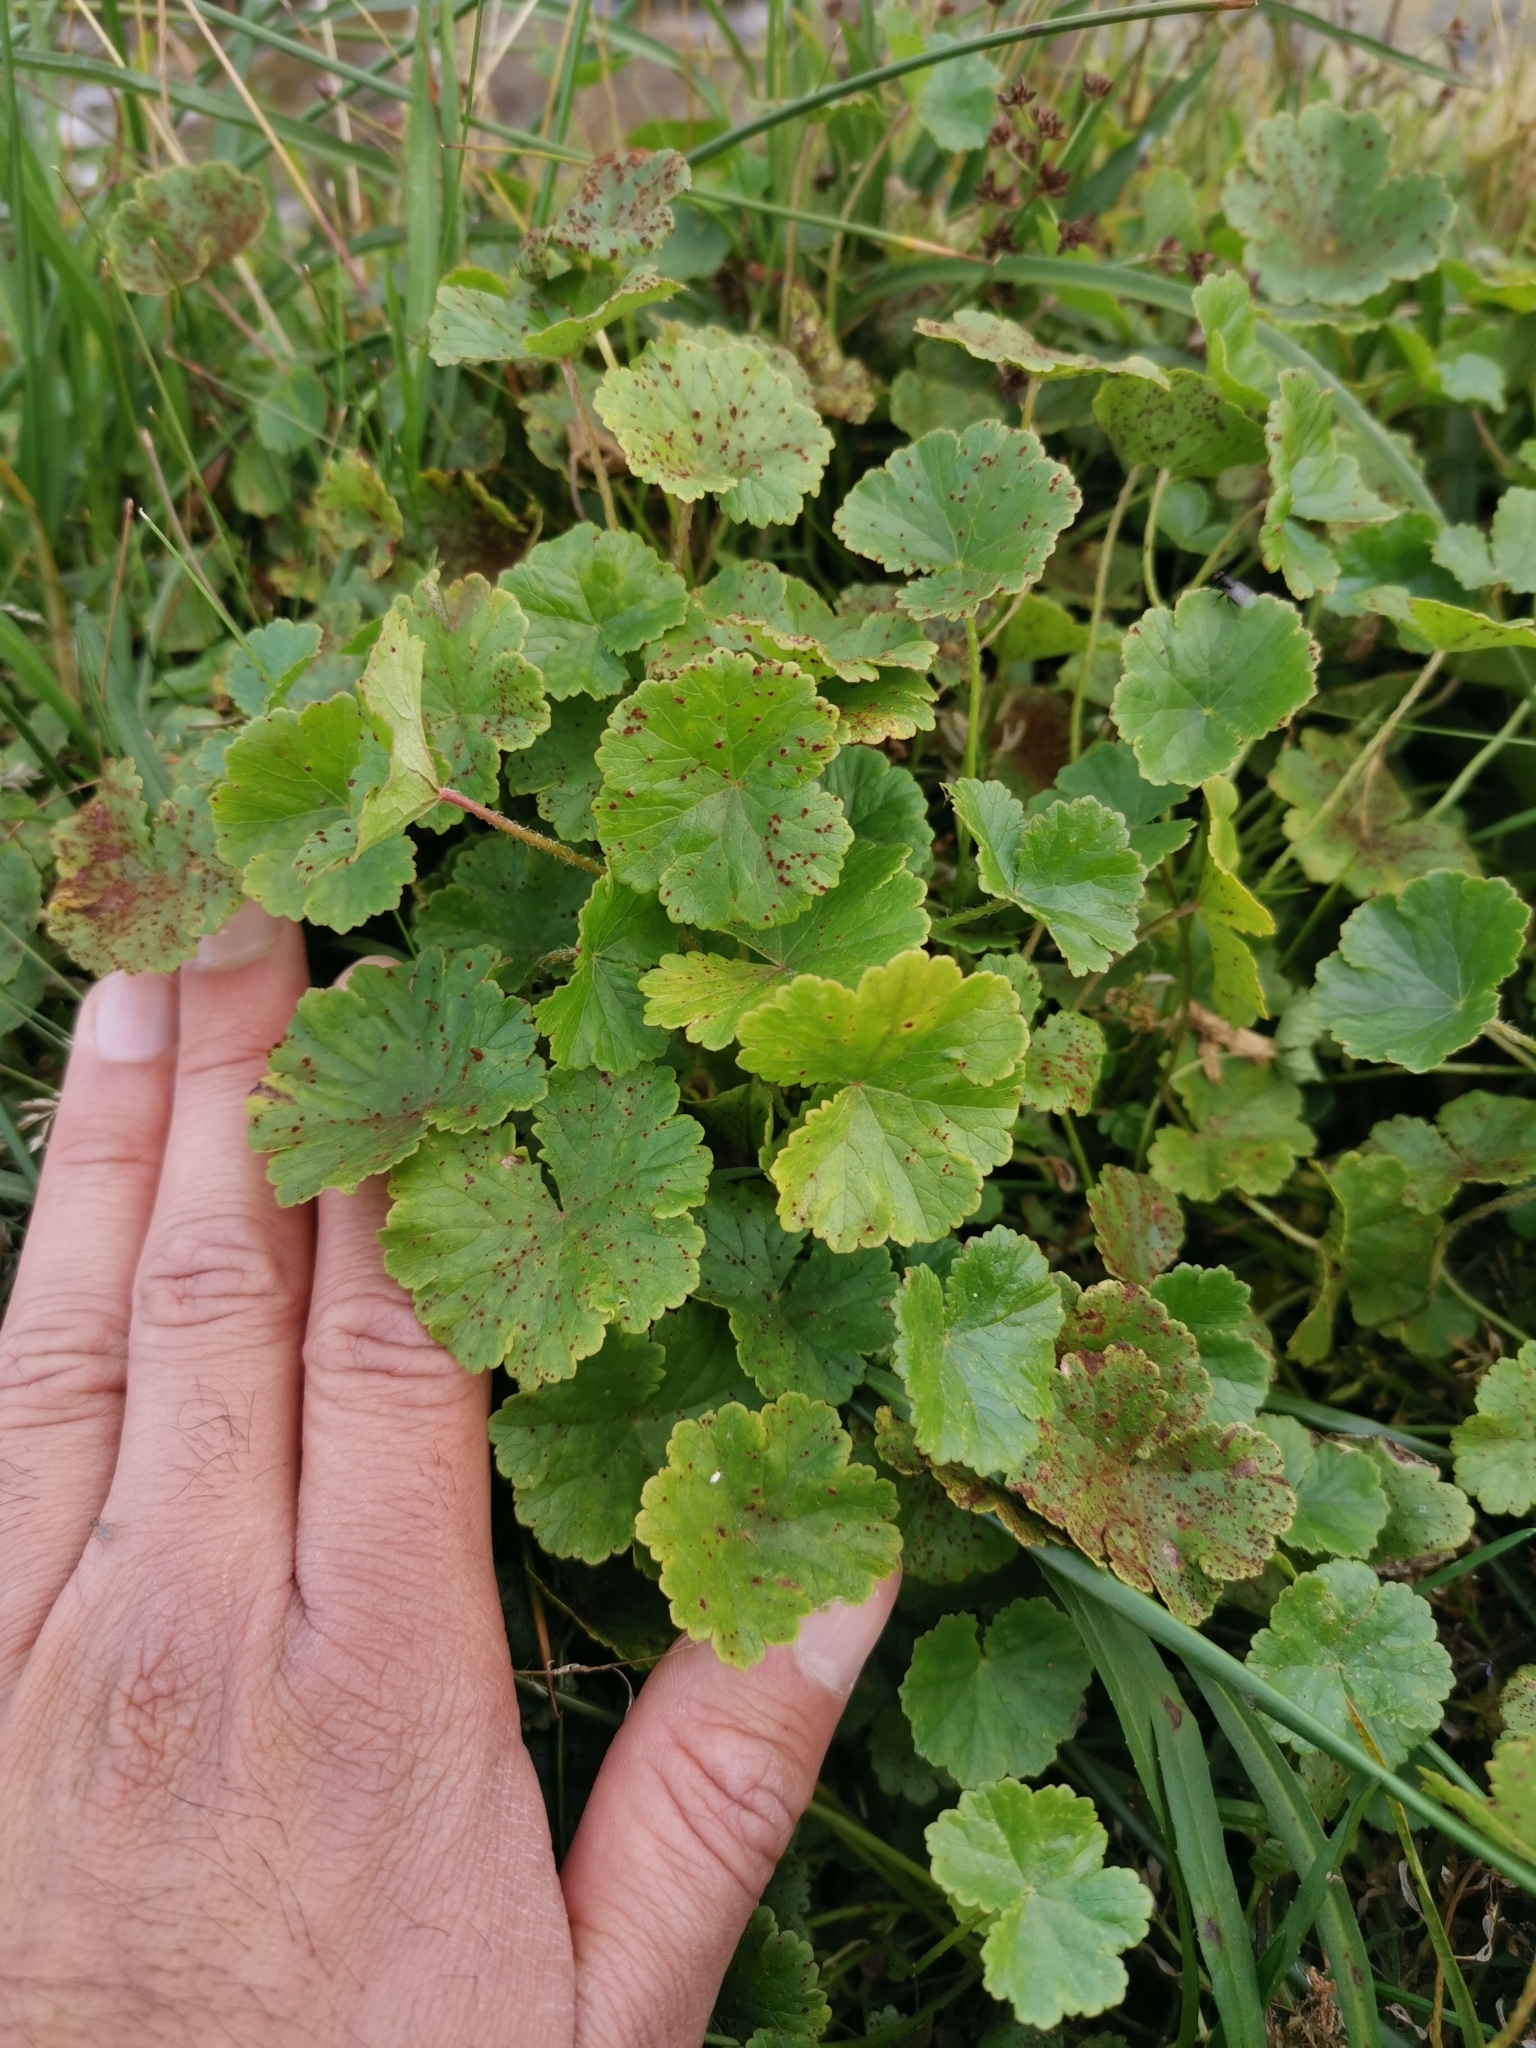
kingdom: Plantae
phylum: Tracheophyta
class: Magnoliopsida
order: Gunnerales
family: Gunneraceae
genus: Gunnera
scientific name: Gunnera magellanica
